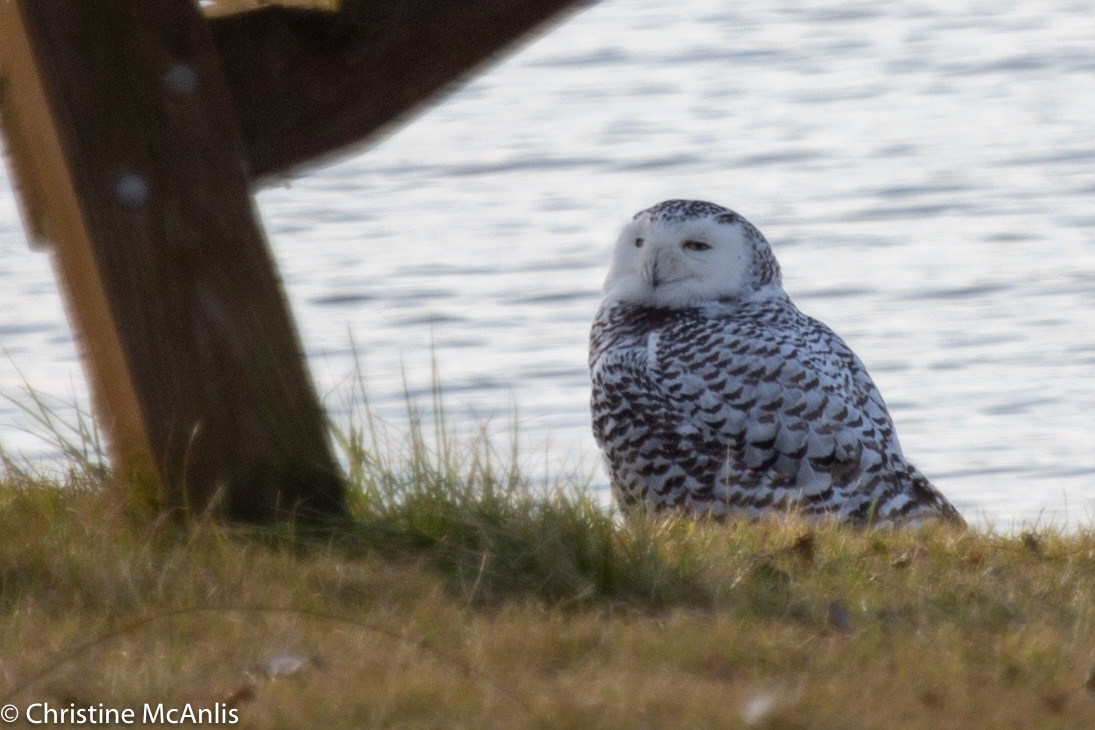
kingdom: Animalia
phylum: Chordata
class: Aves
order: Strigiformes
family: Strigidae
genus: Bubo
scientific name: Bubo scandiacus
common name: Snowy owl
